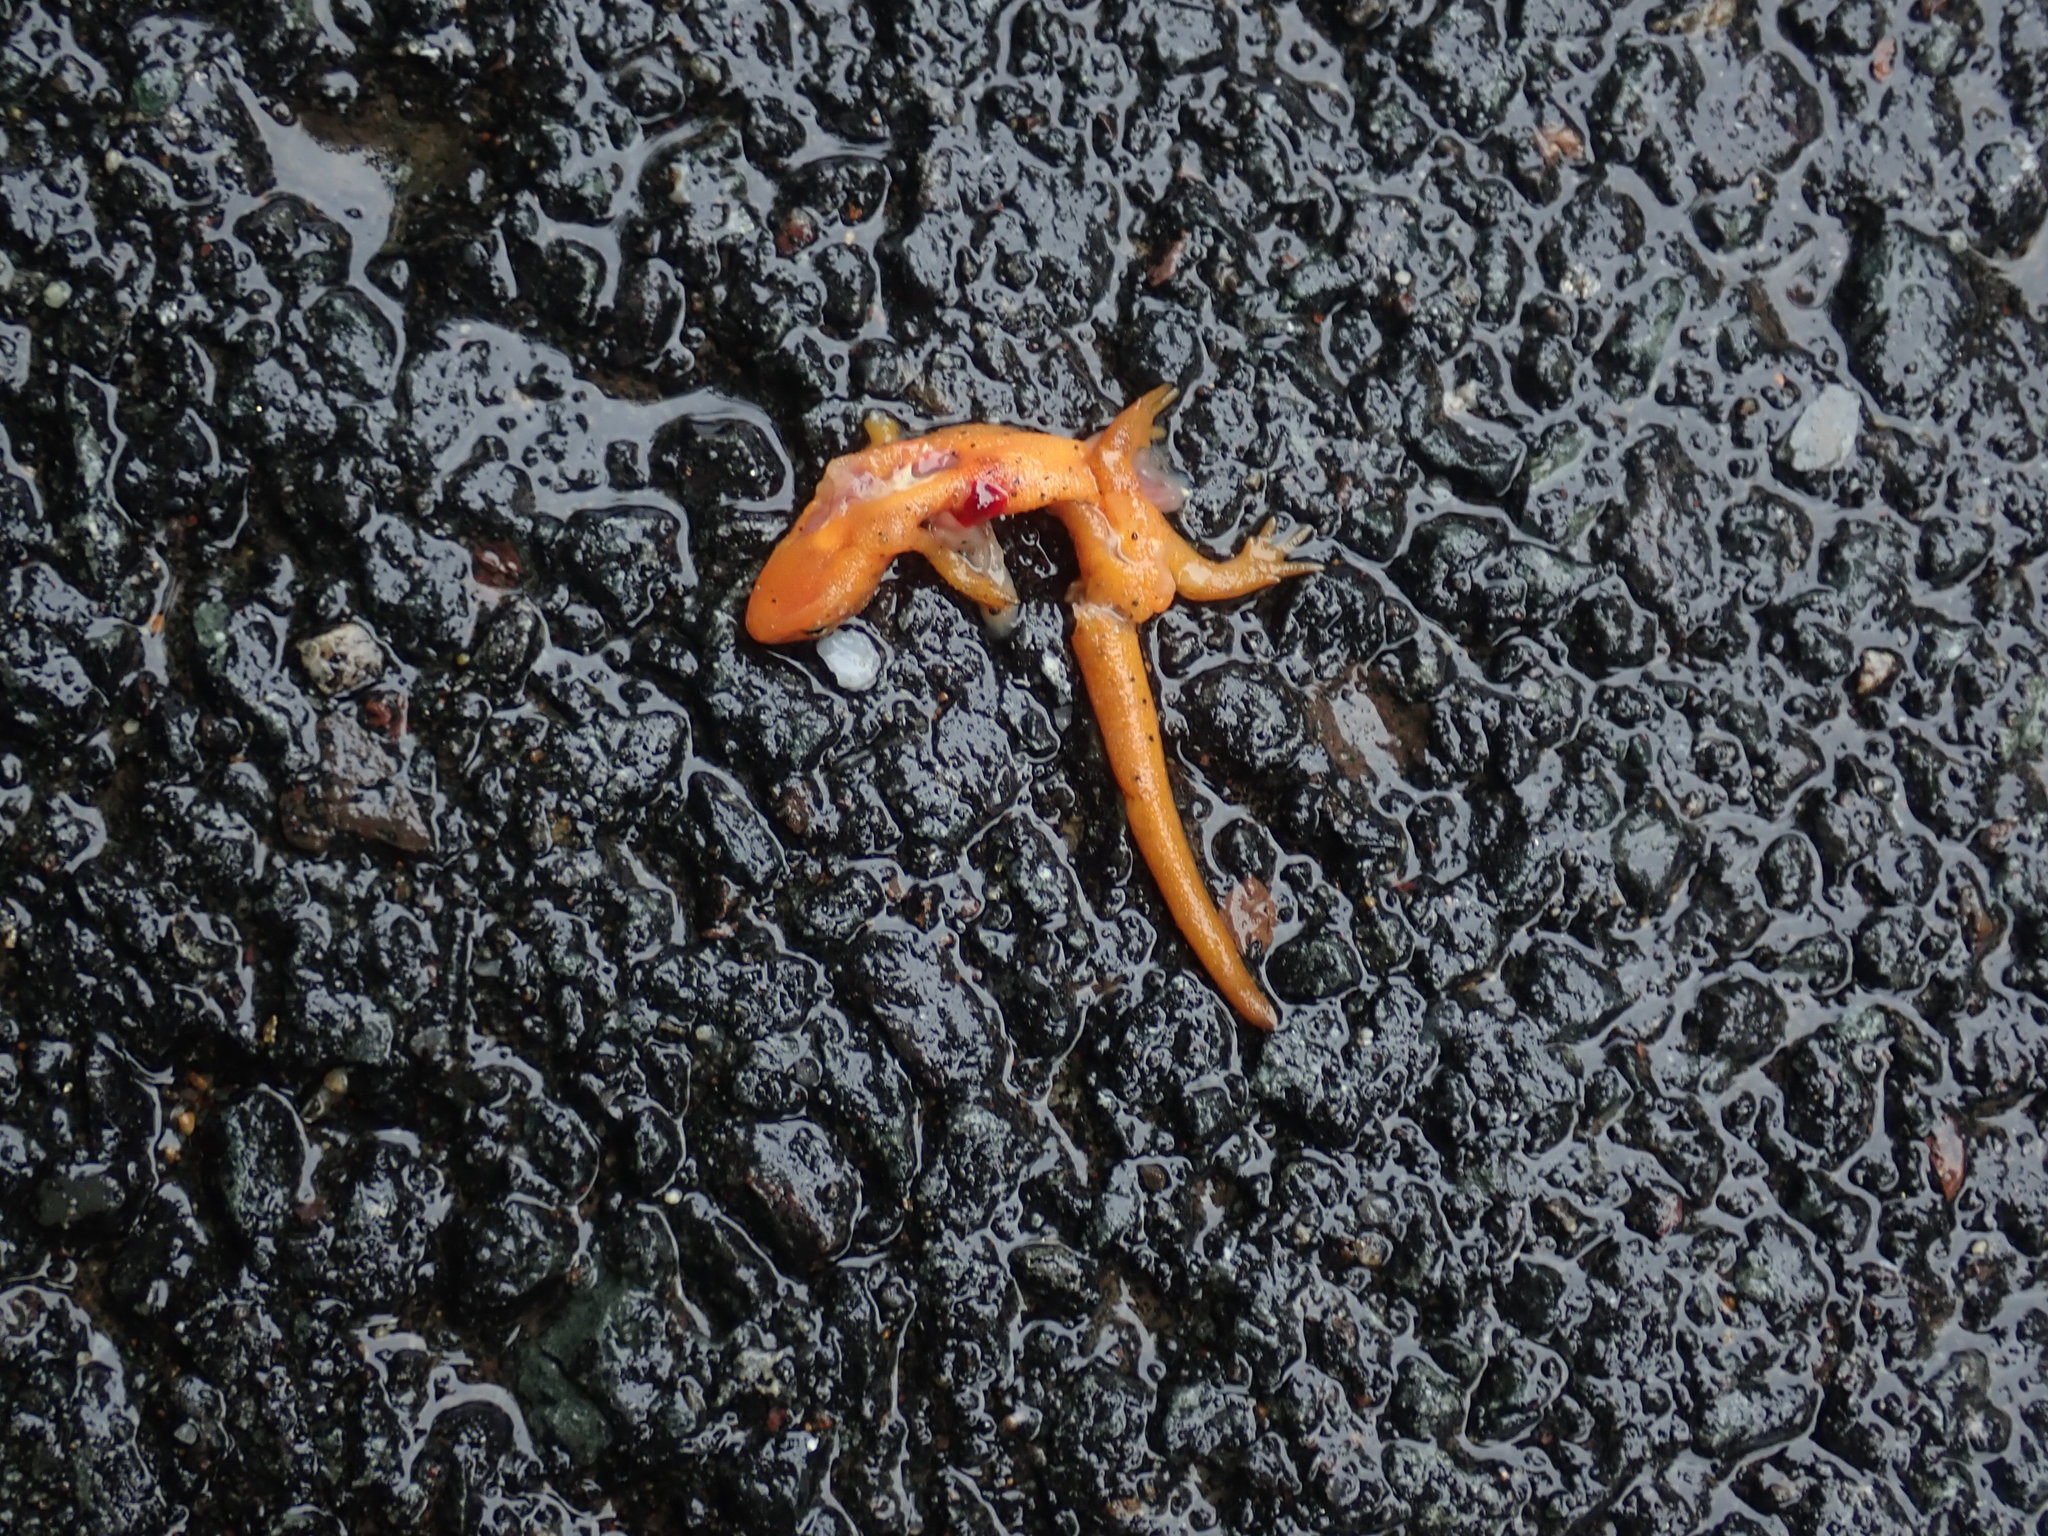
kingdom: Animalia
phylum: Chordata
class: Amphibia
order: Caudata
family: Salamandridae
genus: Notophthalmus
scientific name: Notophthalmus viridescens
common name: Eastern newt
